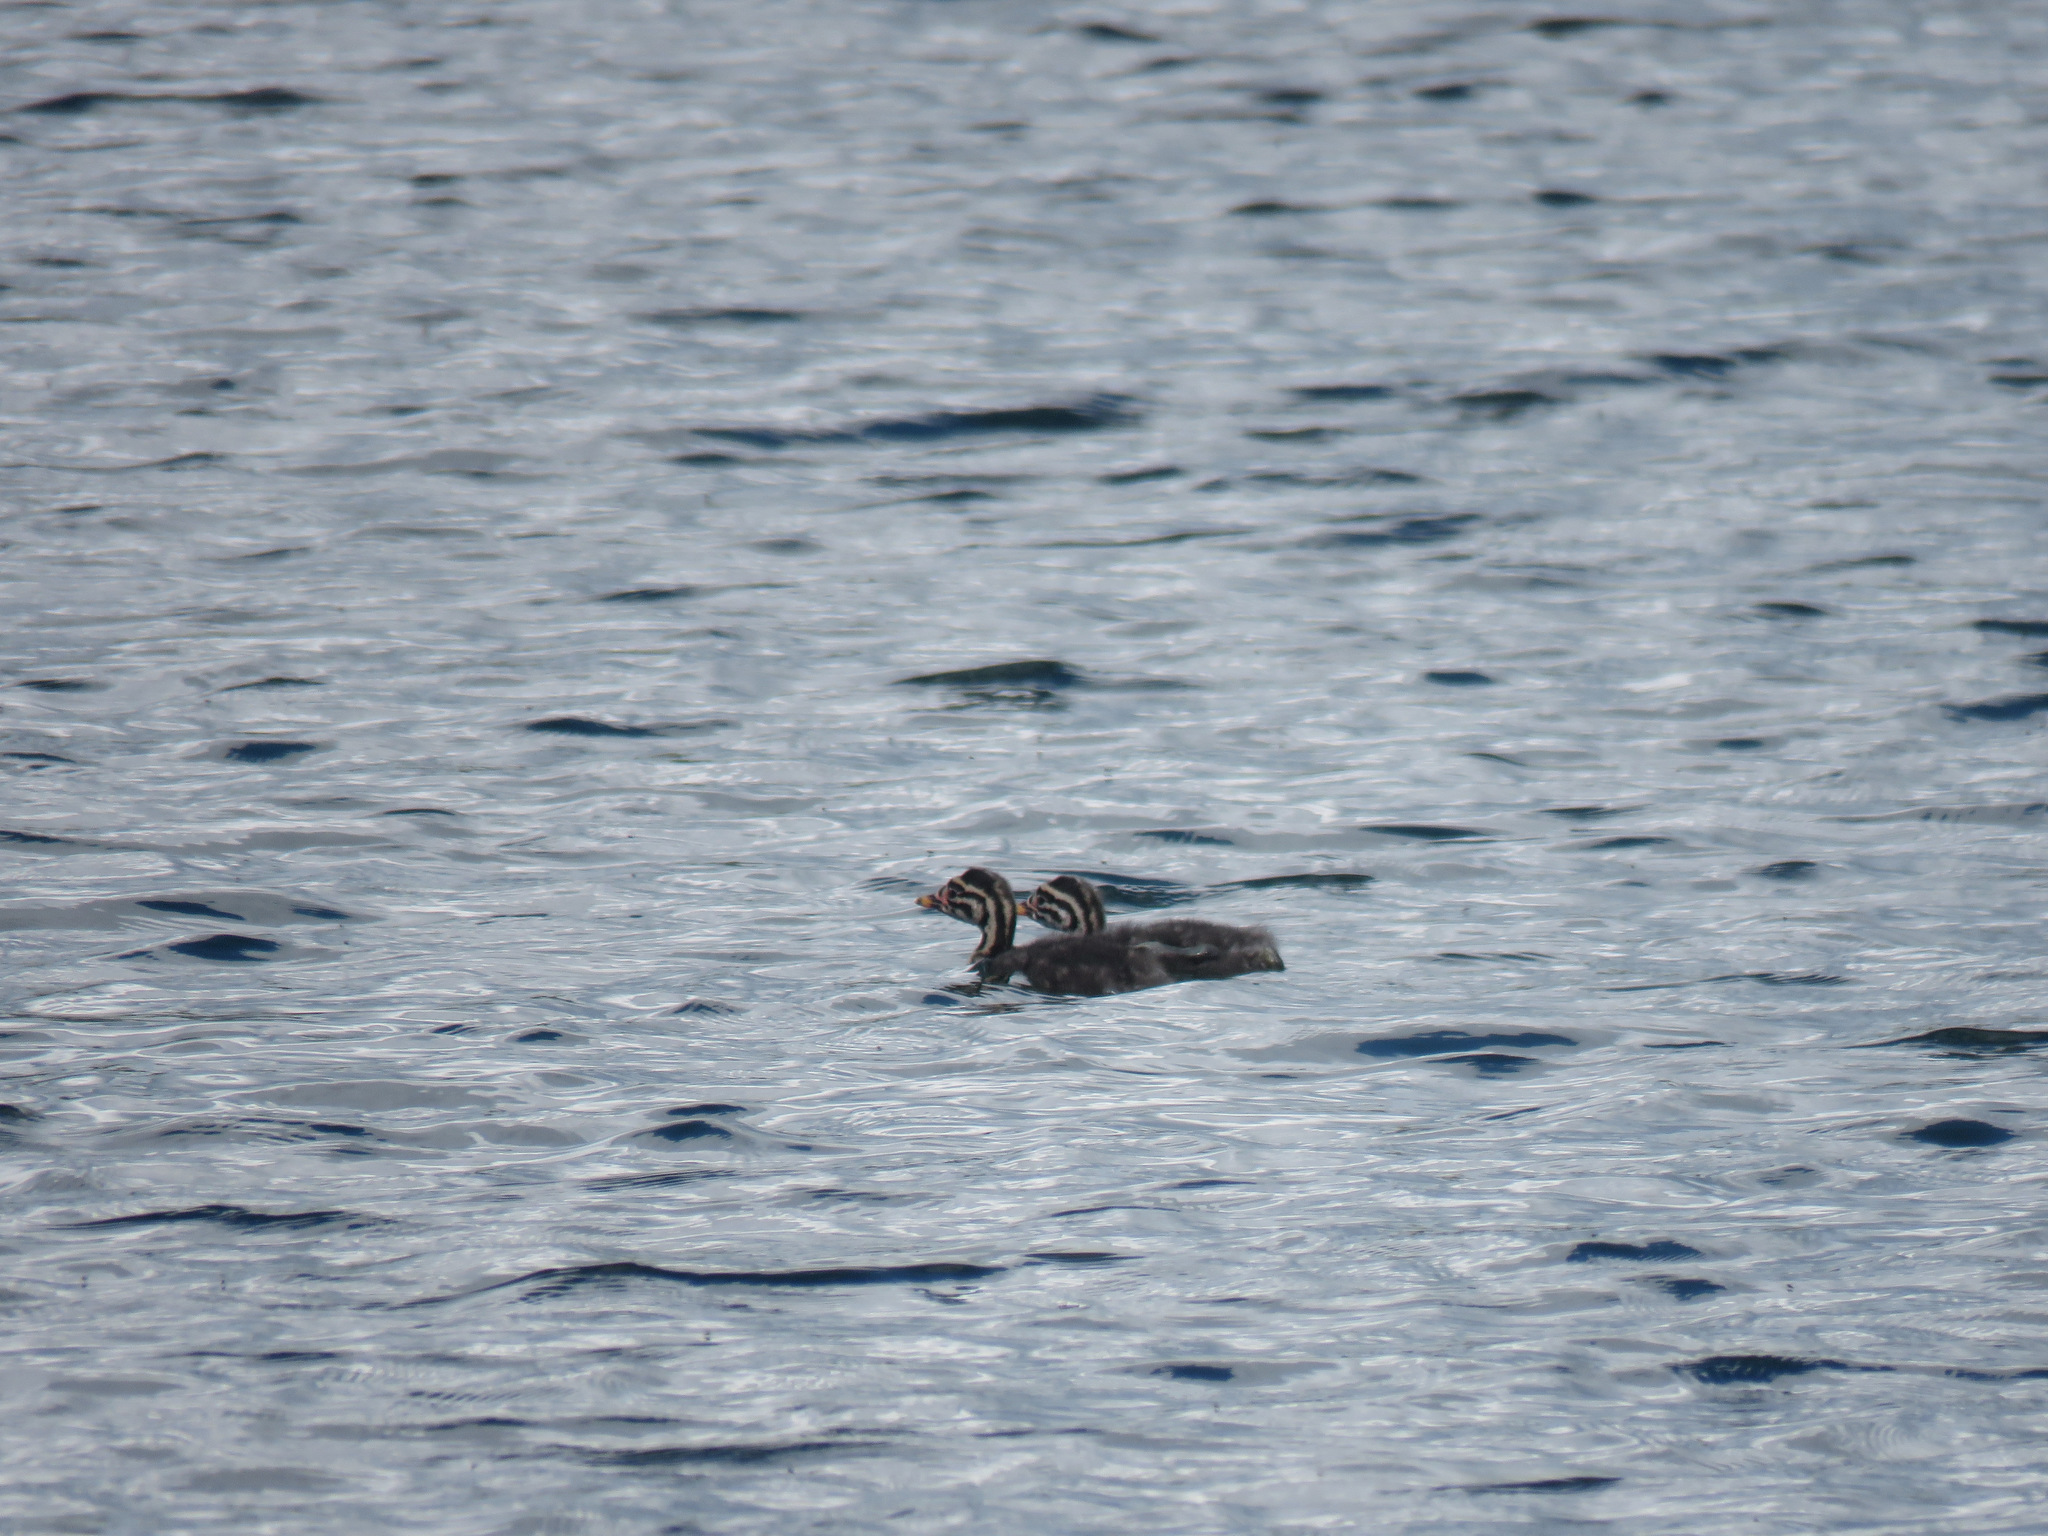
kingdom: Animalia
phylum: Chordata
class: Aves
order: Podicipediformes
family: Podicipedidae
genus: Podiceps
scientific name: Podiceps grisegena
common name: Red-necked grebe
